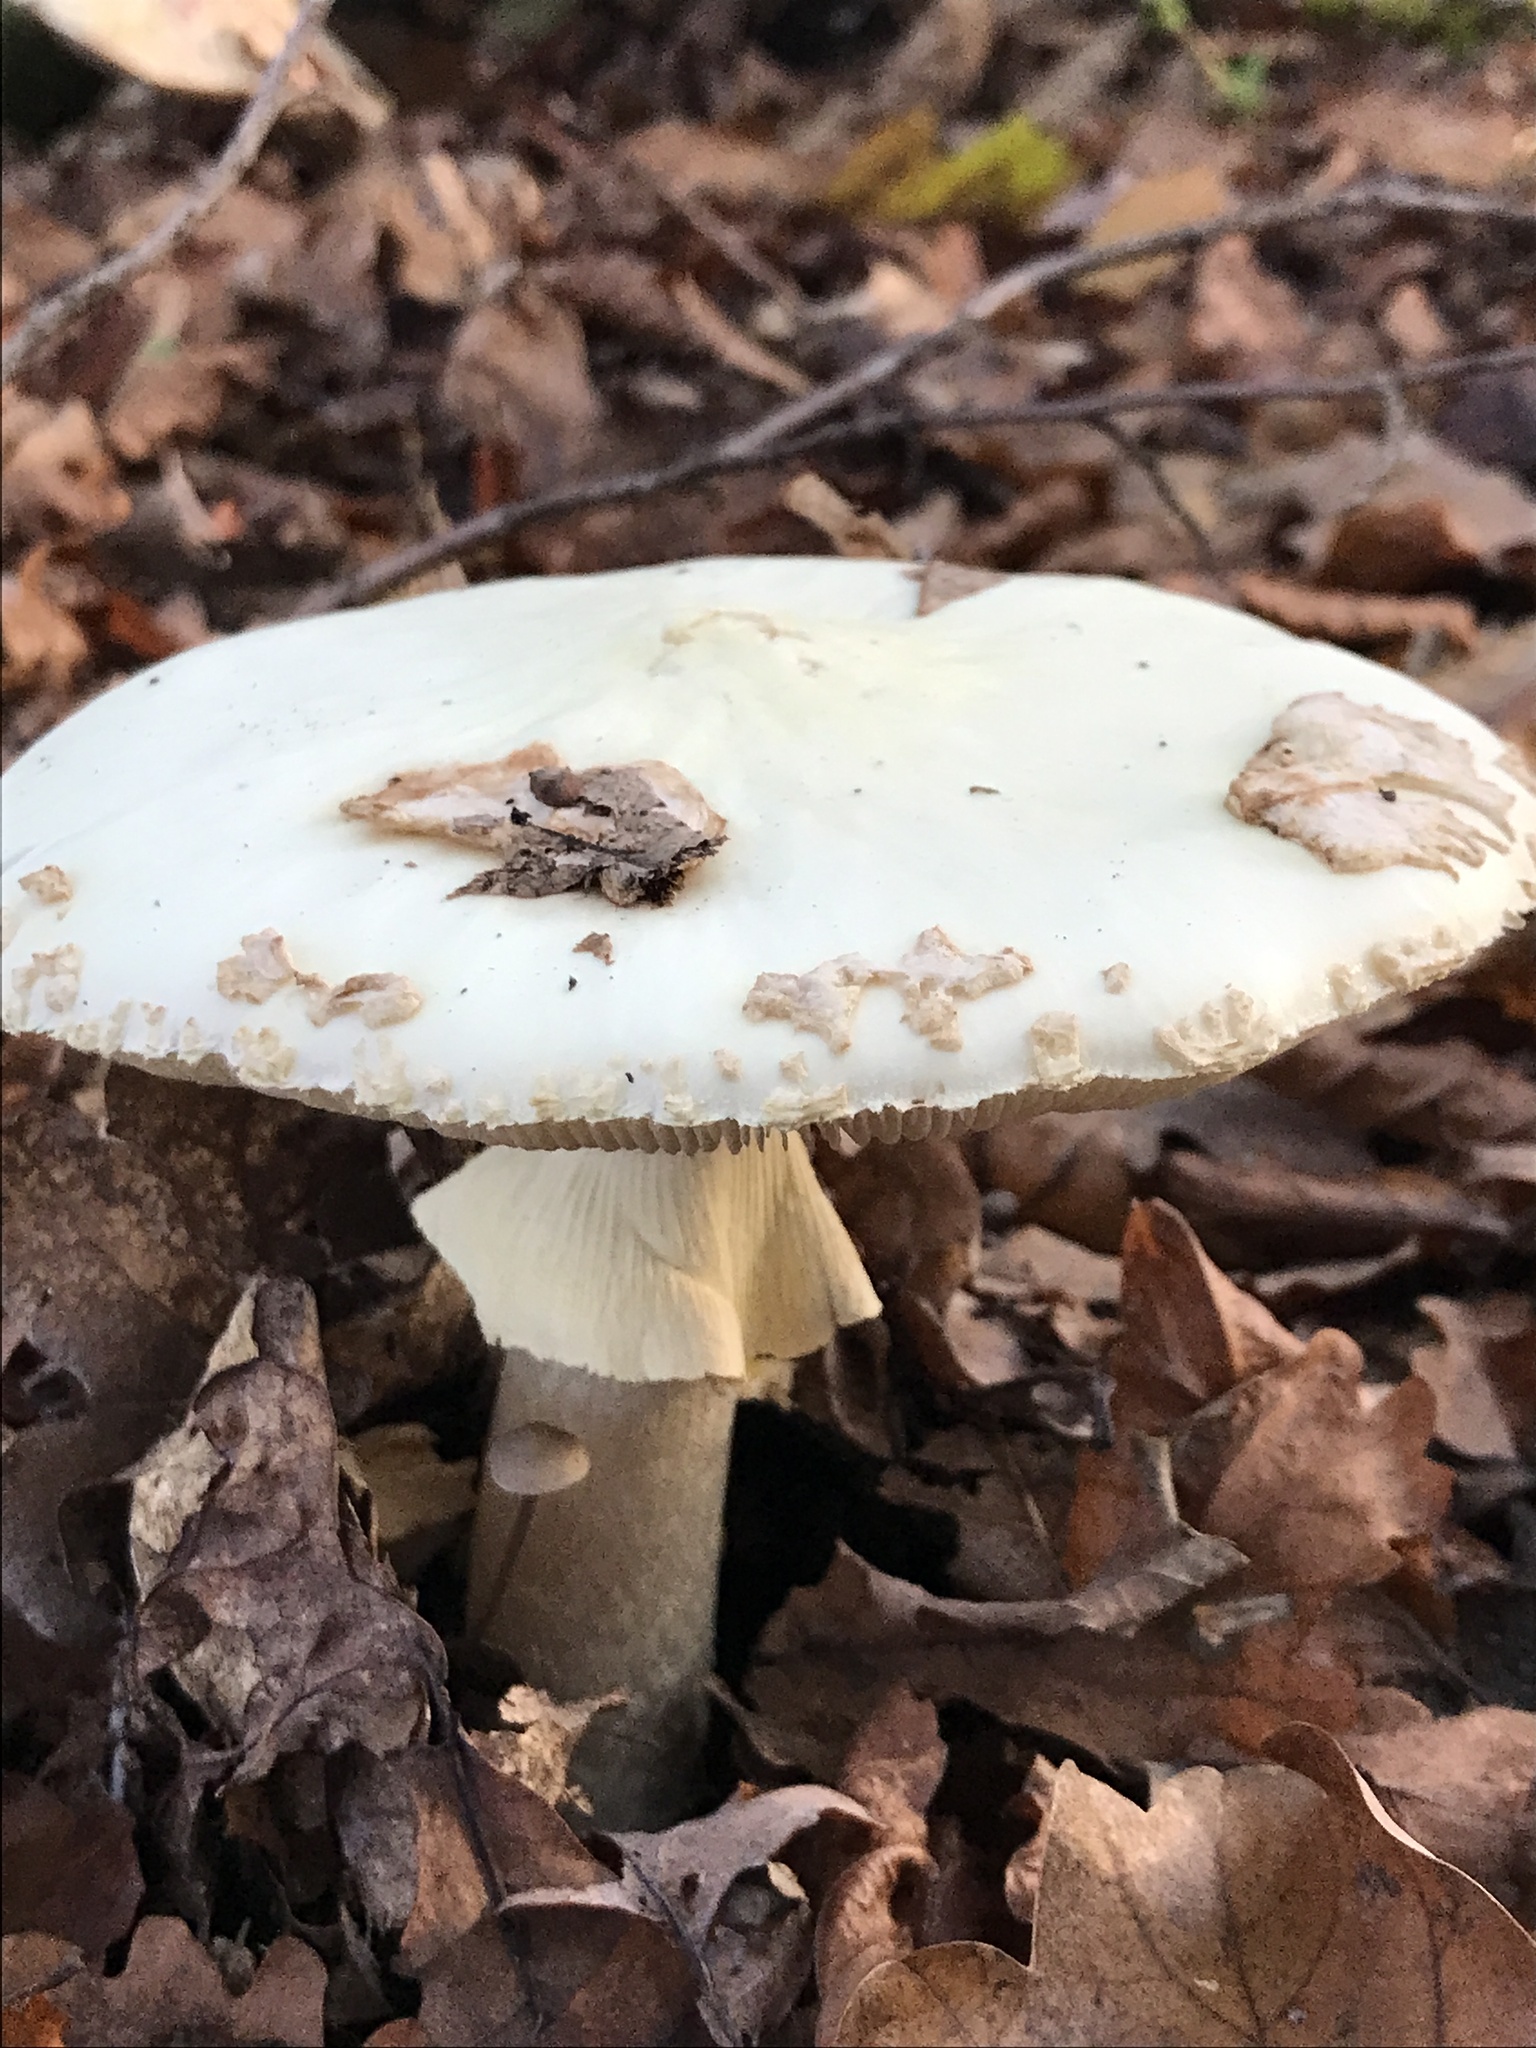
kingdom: Fungi
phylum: Basidiomycota
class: Agaricomycetes
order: Agaricales
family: Amanitaceae
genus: Amanita
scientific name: Amanita citrina
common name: False death-cap
